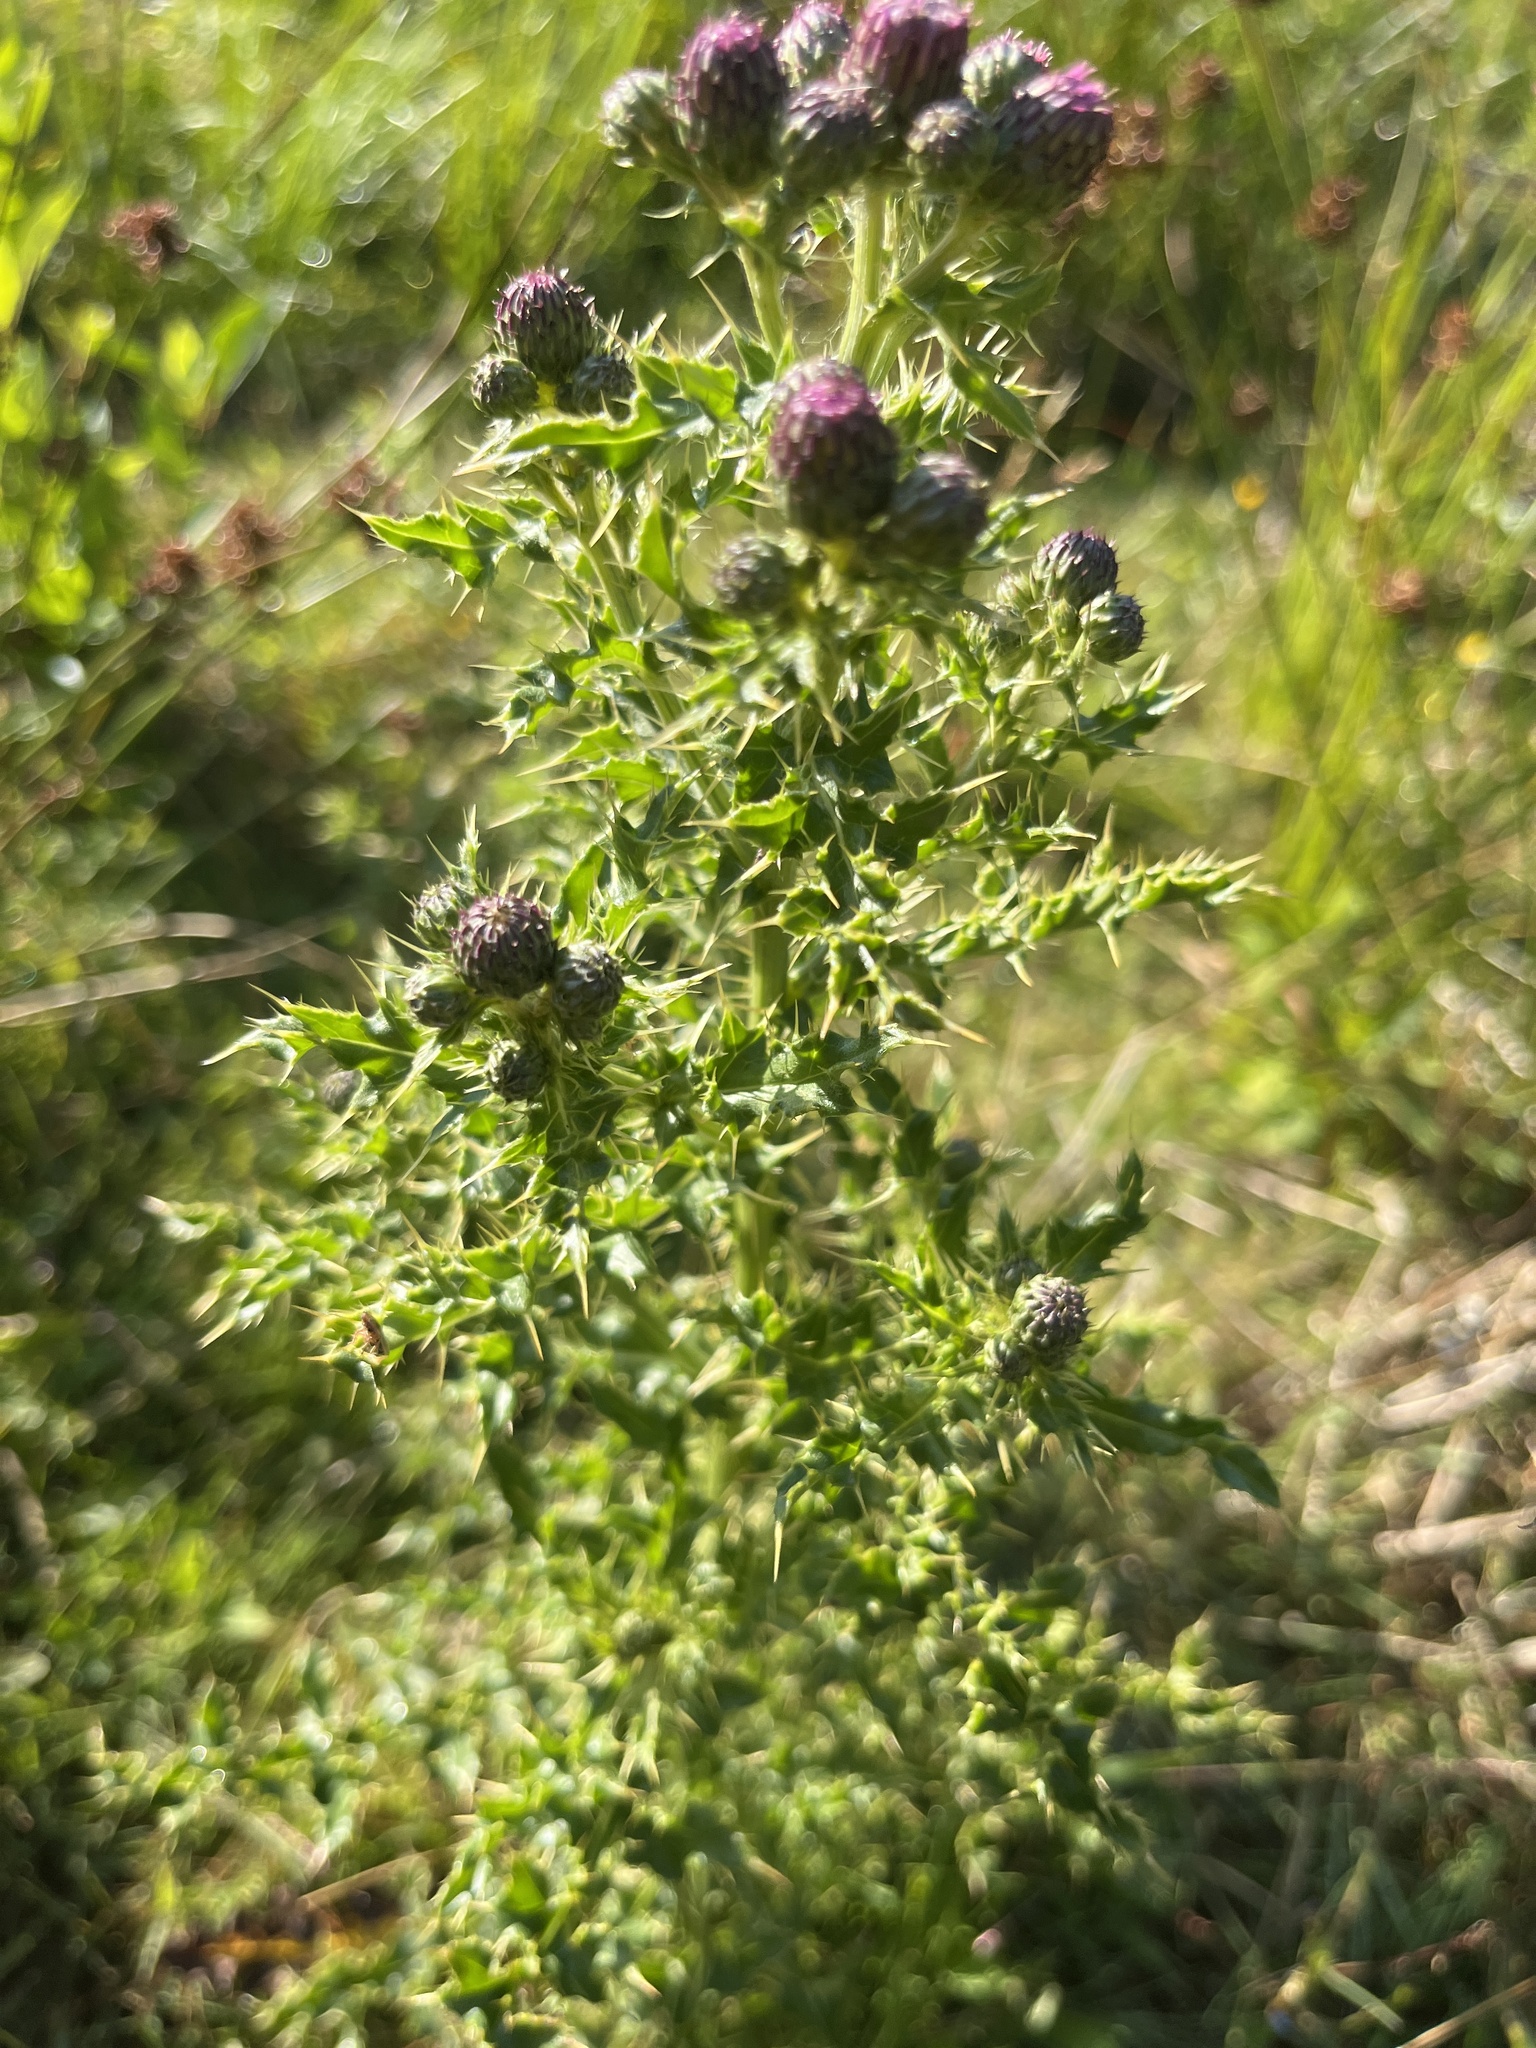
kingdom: Plantae
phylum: Tracheophyta
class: Magnoliopsida
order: Asterales
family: Asteraceae
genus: Cirsium
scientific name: Cirsium arvense
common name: Creeping thistle
